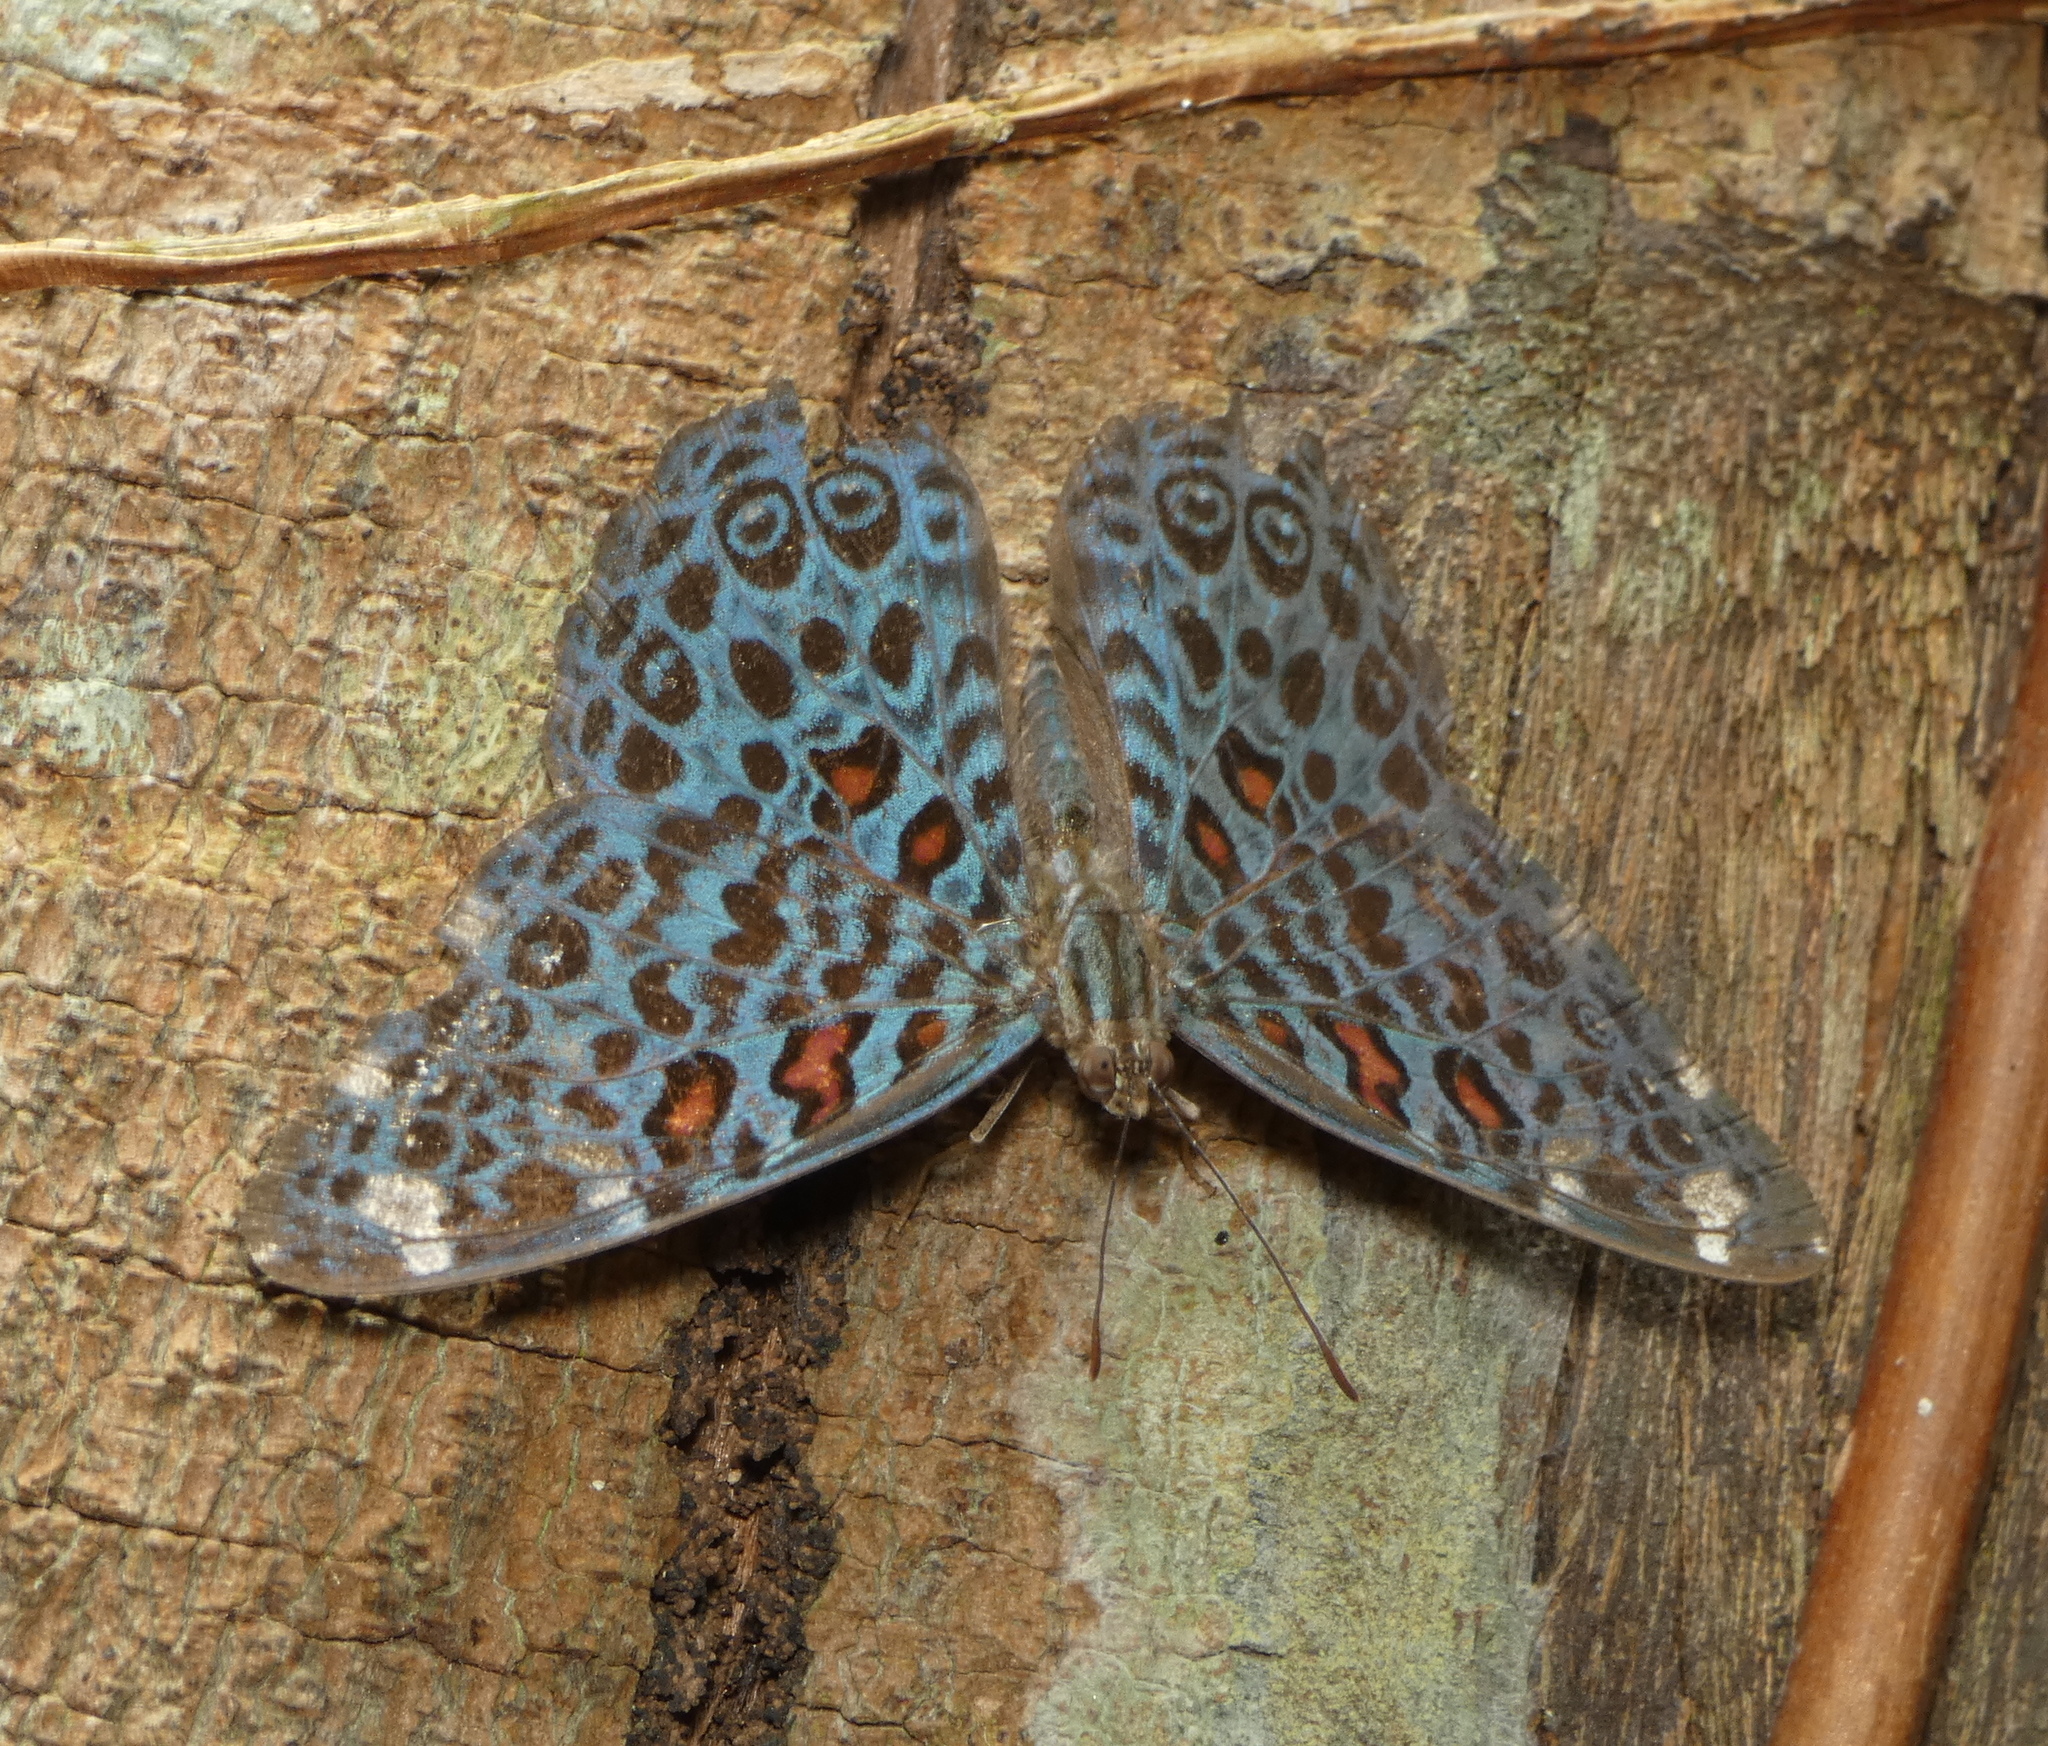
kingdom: Animalia
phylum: Arthropoda
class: Insecta
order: Lepidoptera
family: Nymphalidae
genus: Hamadryas
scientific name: Hamadryas chloe
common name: Amazon cracker
